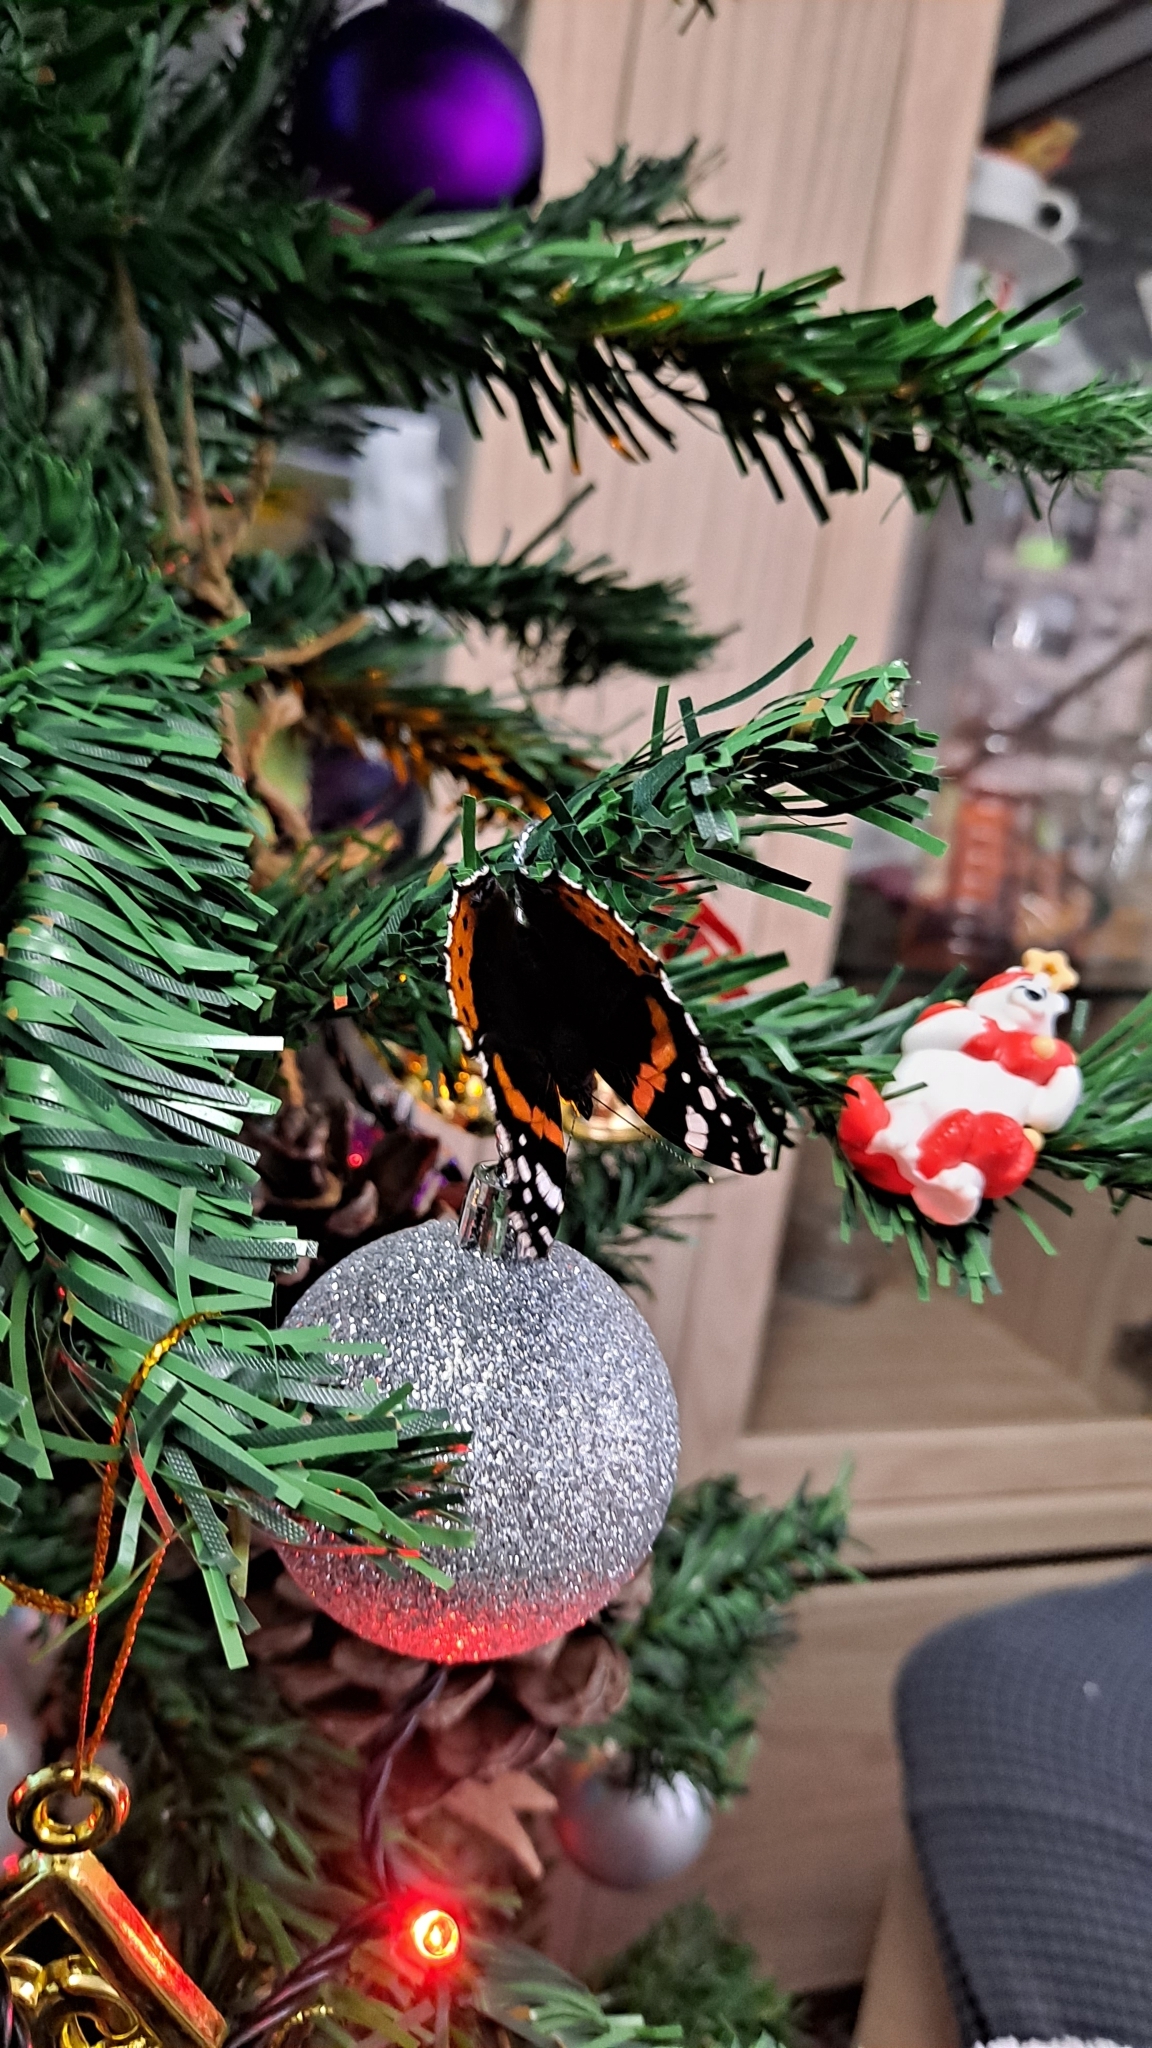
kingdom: Animalia
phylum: Arthropoda
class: Insecta
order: Lepidoptera
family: Nymphalidae
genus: Vanessa
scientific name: Vanessa atalanta
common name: Red admiral
